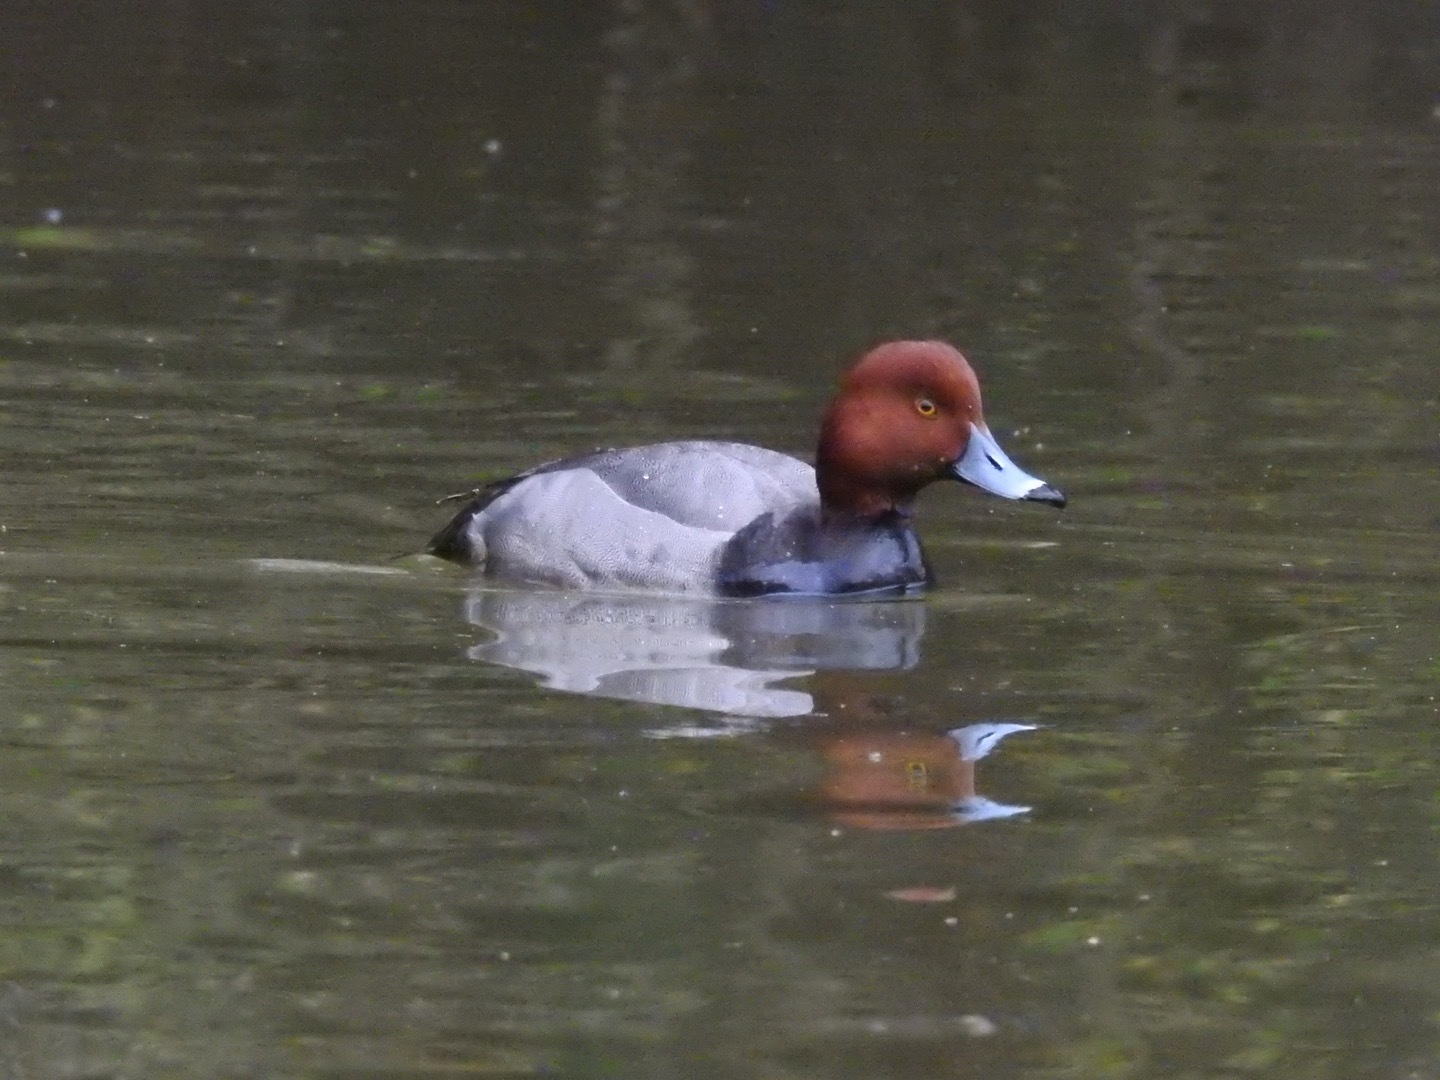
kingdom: Animalia
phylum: Chordata
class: Aves
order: Anseriformes
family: Anatidae
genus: Aythya
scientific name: Aythya americana
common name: Redhead
